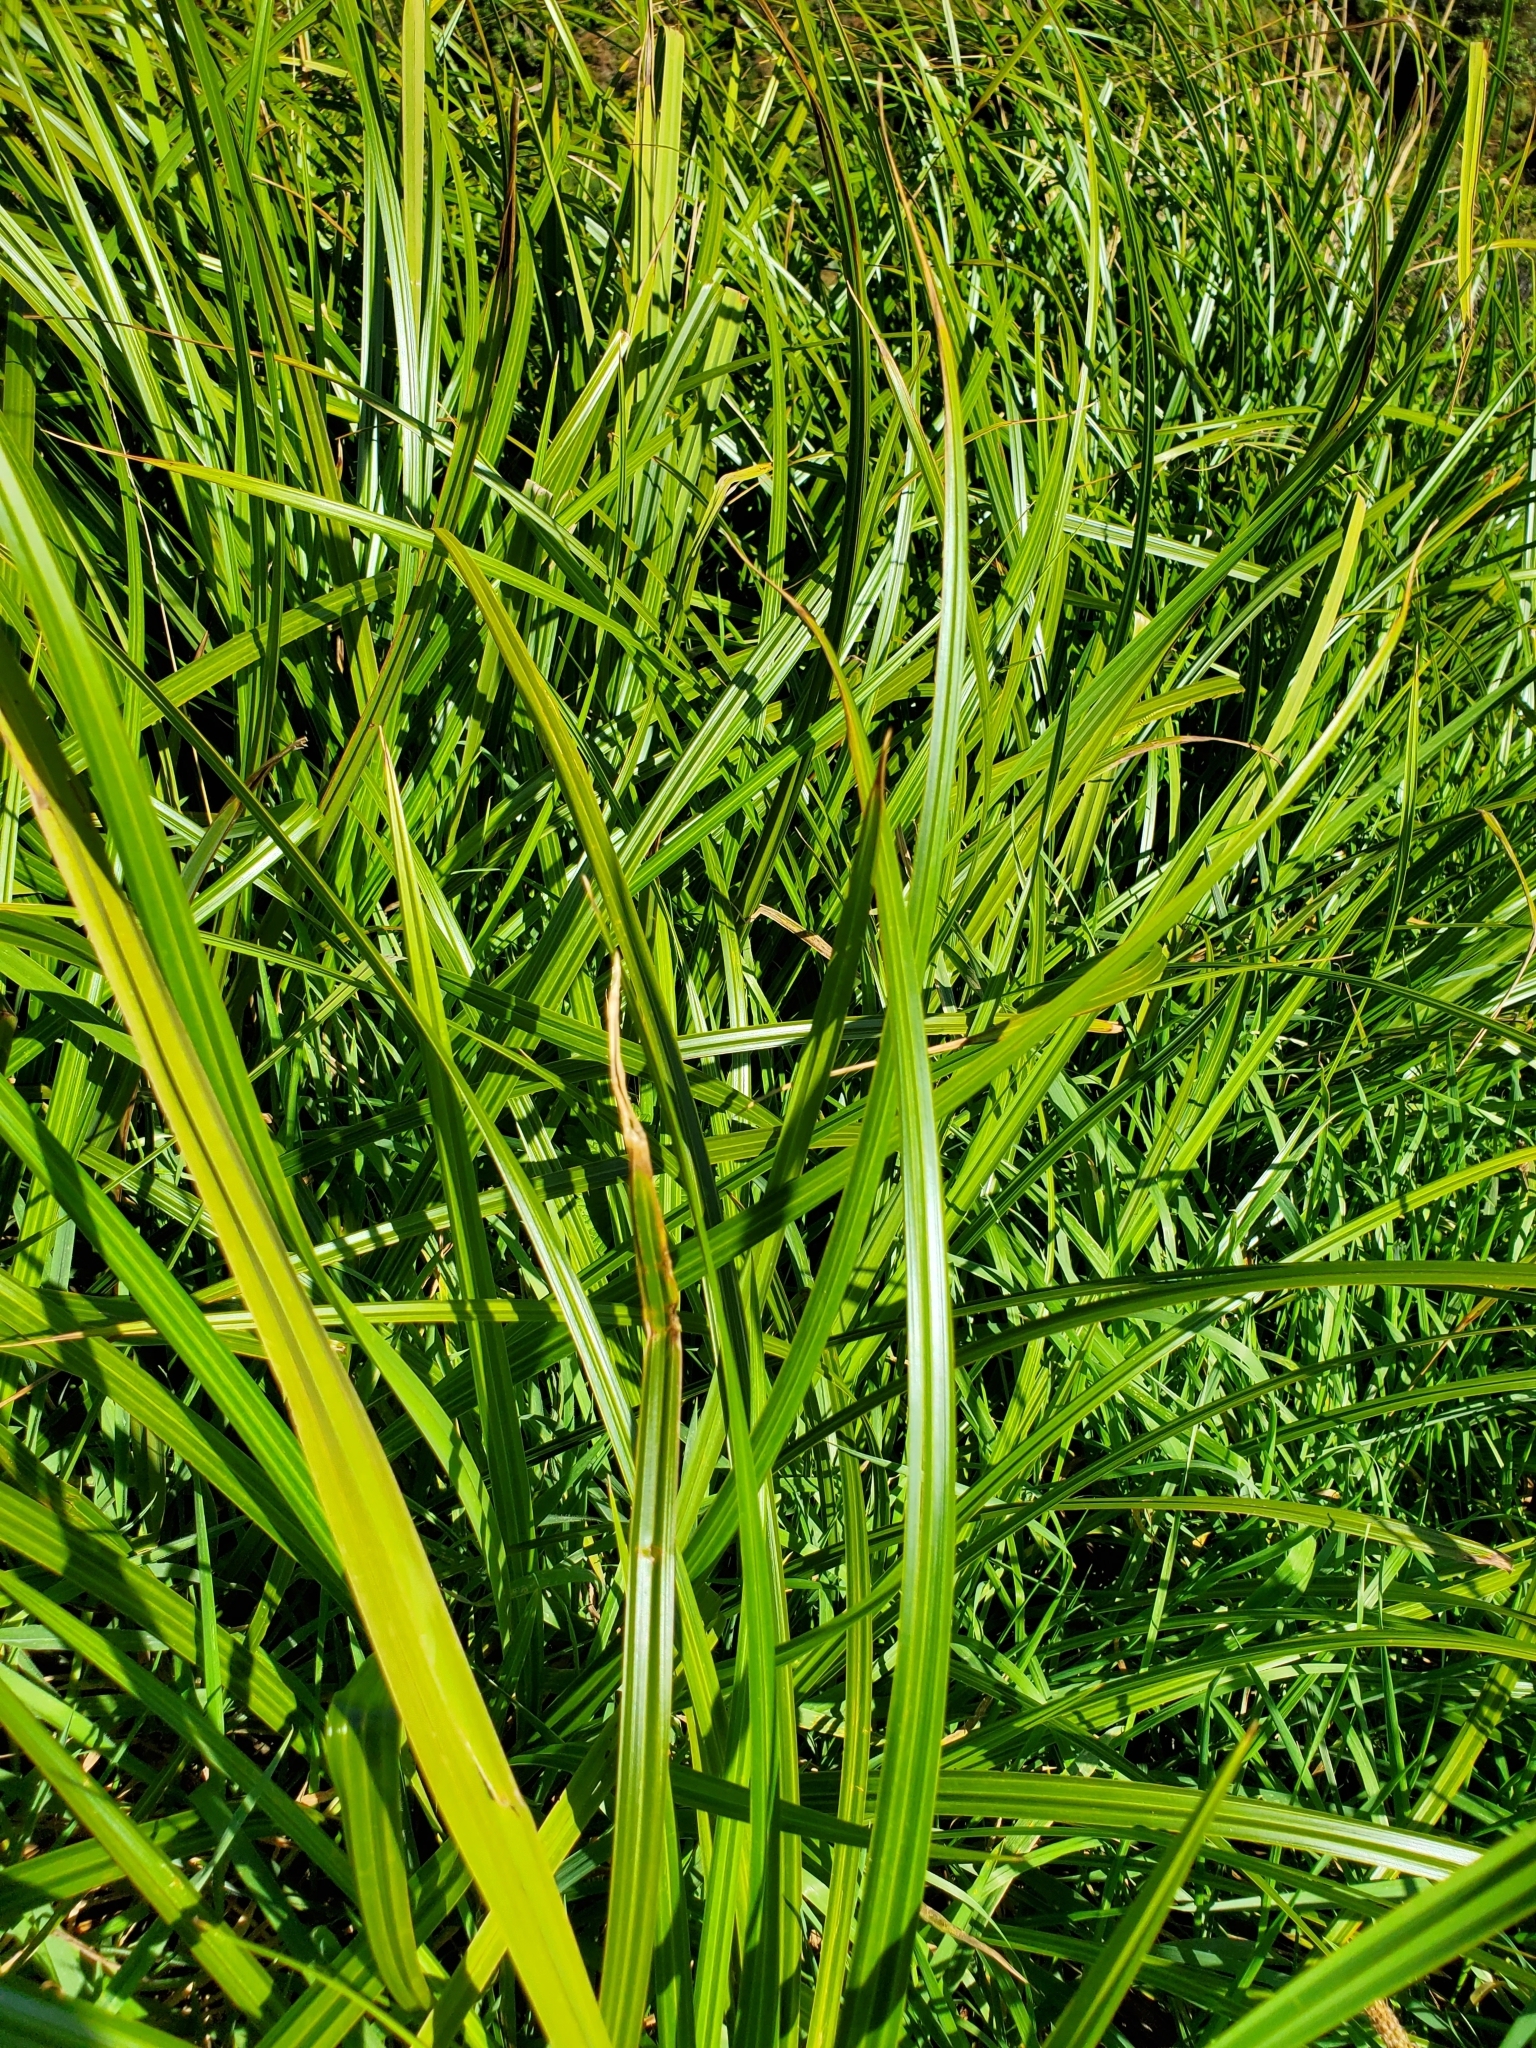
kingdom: Plantae
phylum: Tracheophyta
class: Liliopsida
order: Poales
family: Cyperaceae
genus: Carex
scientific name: Carex geminata
